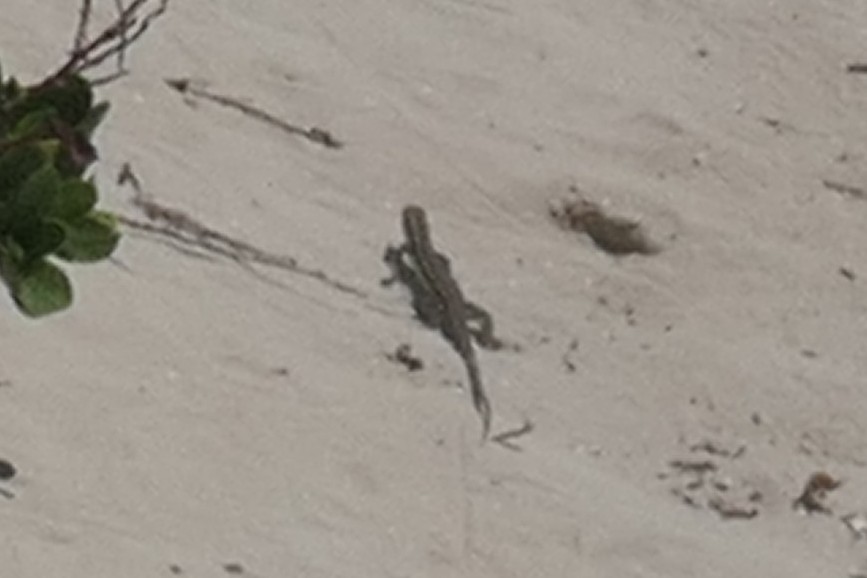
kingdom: Animalia
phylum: Chordata
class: Squamata
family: Teiidae
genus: Pholidoscelis
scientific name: Pholidoscelis griswoldi
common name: Antiguan ameiva
